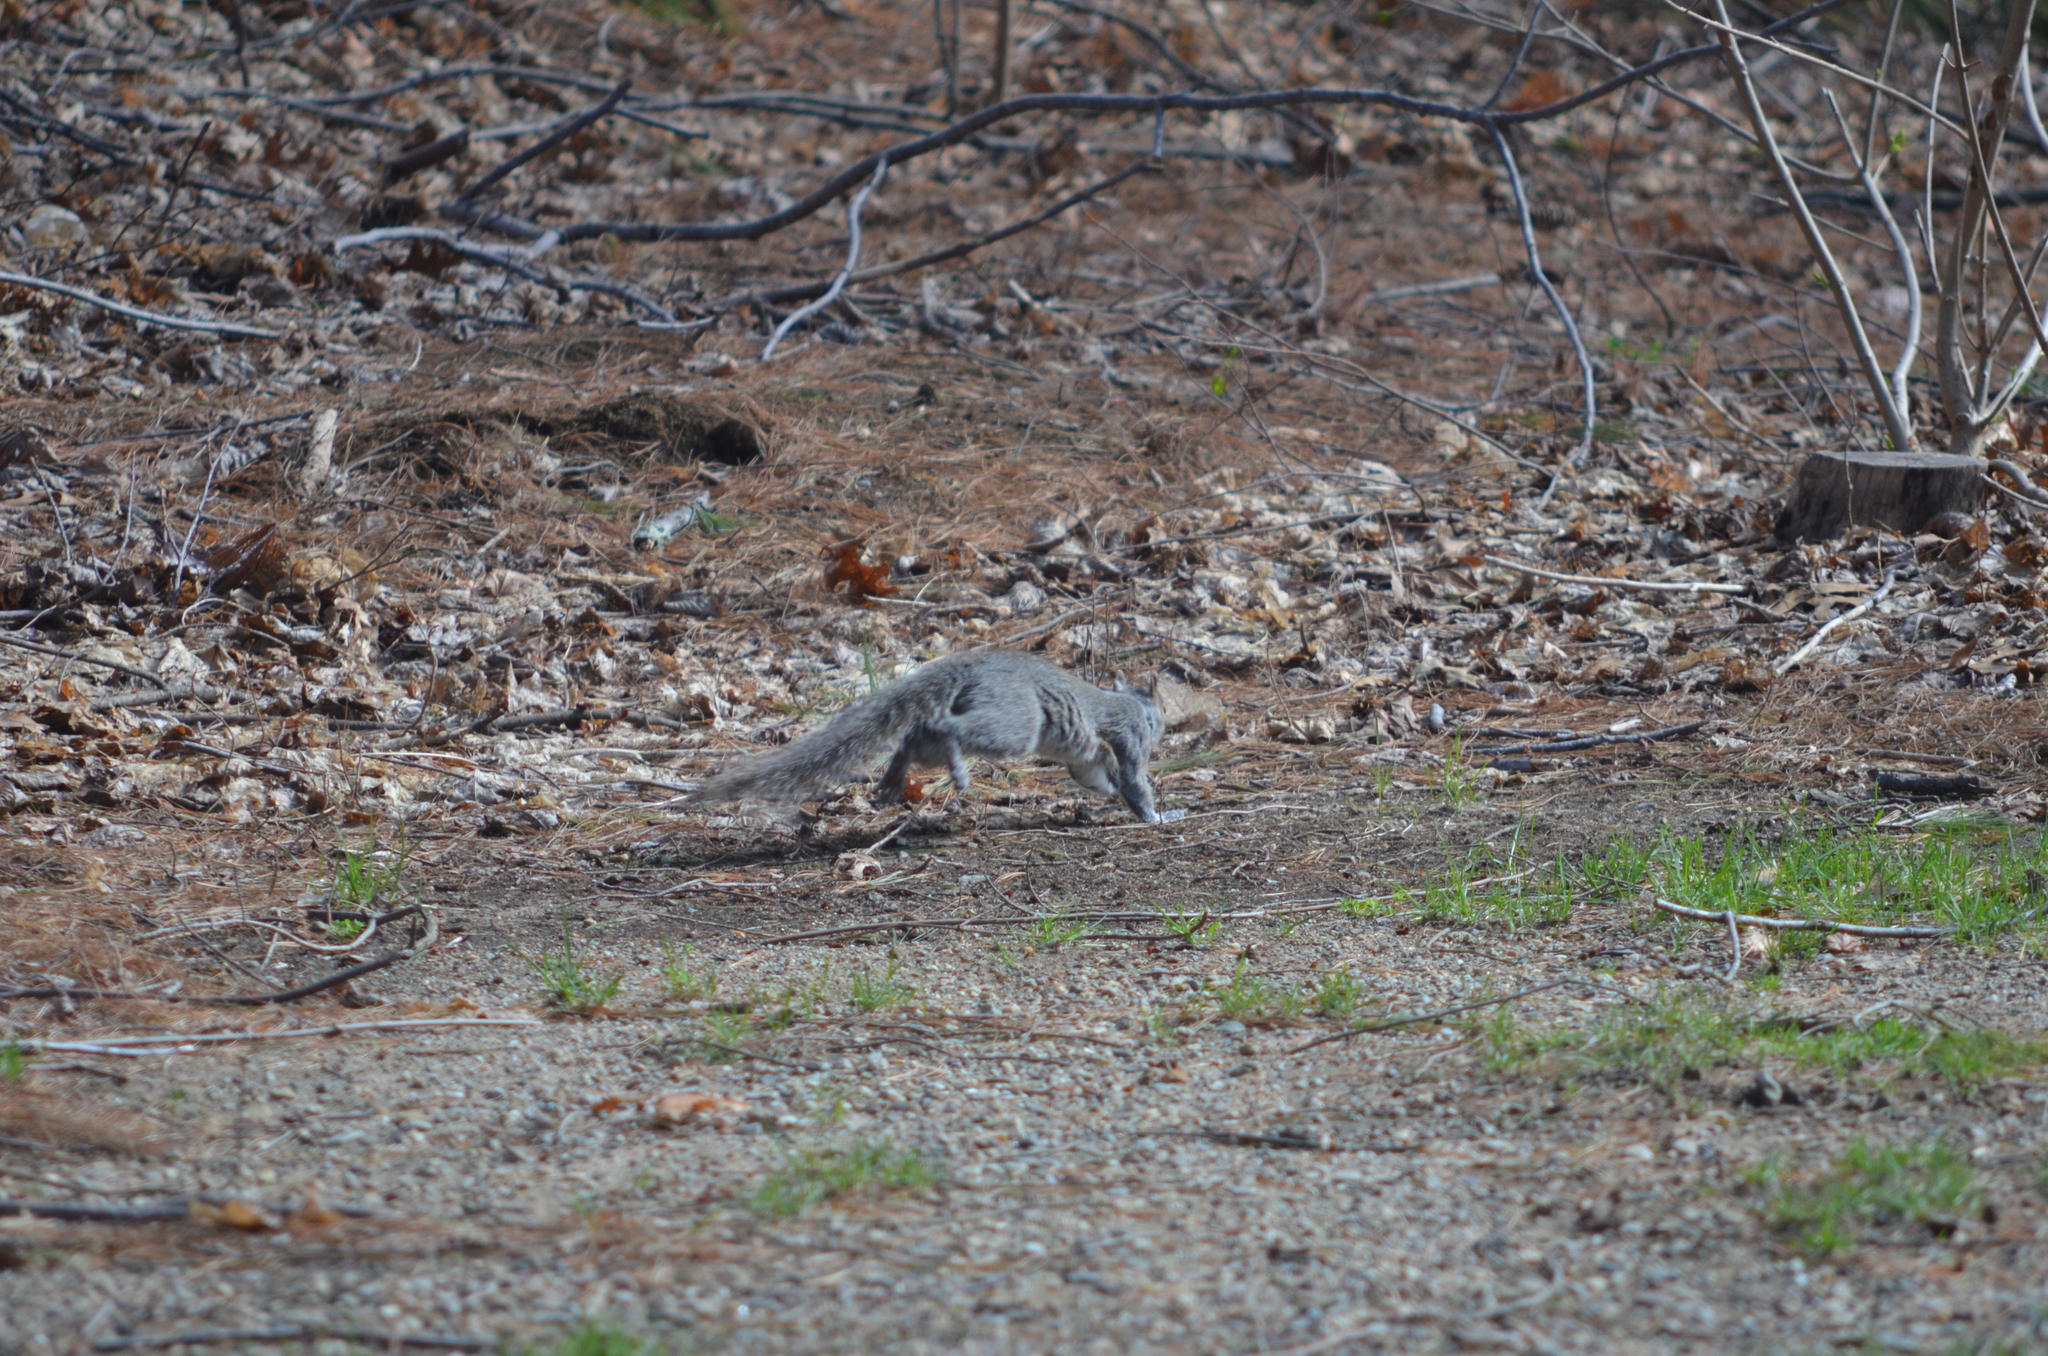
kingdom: Animalia
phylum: Chordata
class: Mammalia
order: Rodentia
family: Sciuridae
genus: Sciurus
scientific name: Sciurus carolinensis
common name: Eastern gray squirrel
